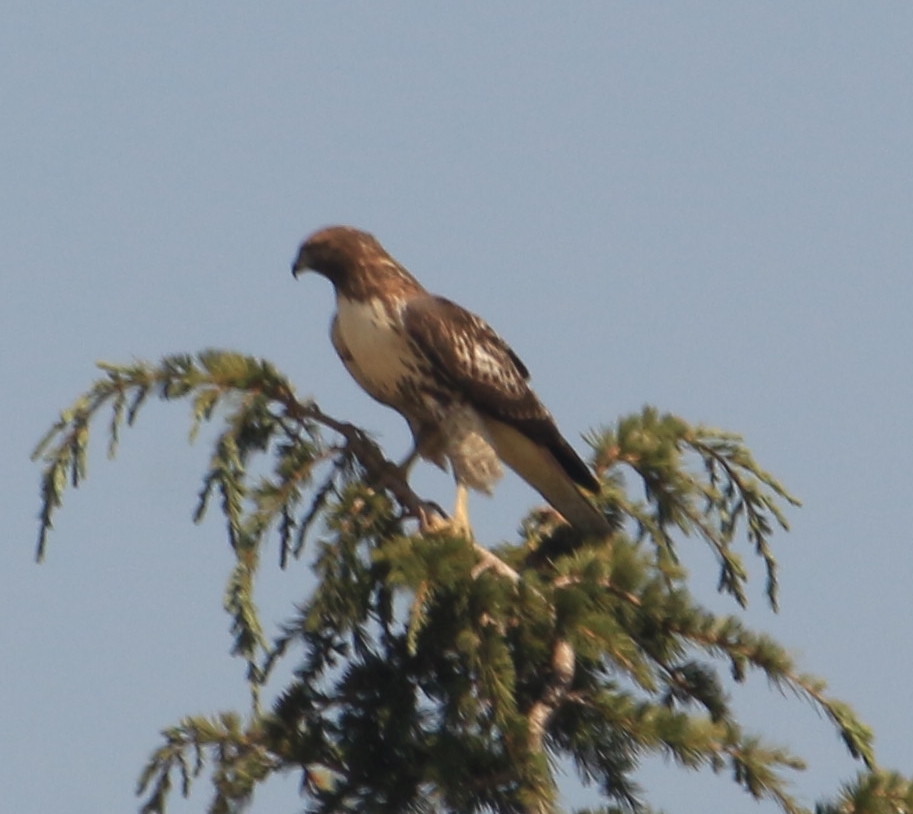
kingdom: Animalia
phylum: Chordata
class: Aves
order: Accipitriformes
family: Accipitridae
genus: Buteo
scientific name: Buteo jamaicensis
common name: Red-tailed hawk
